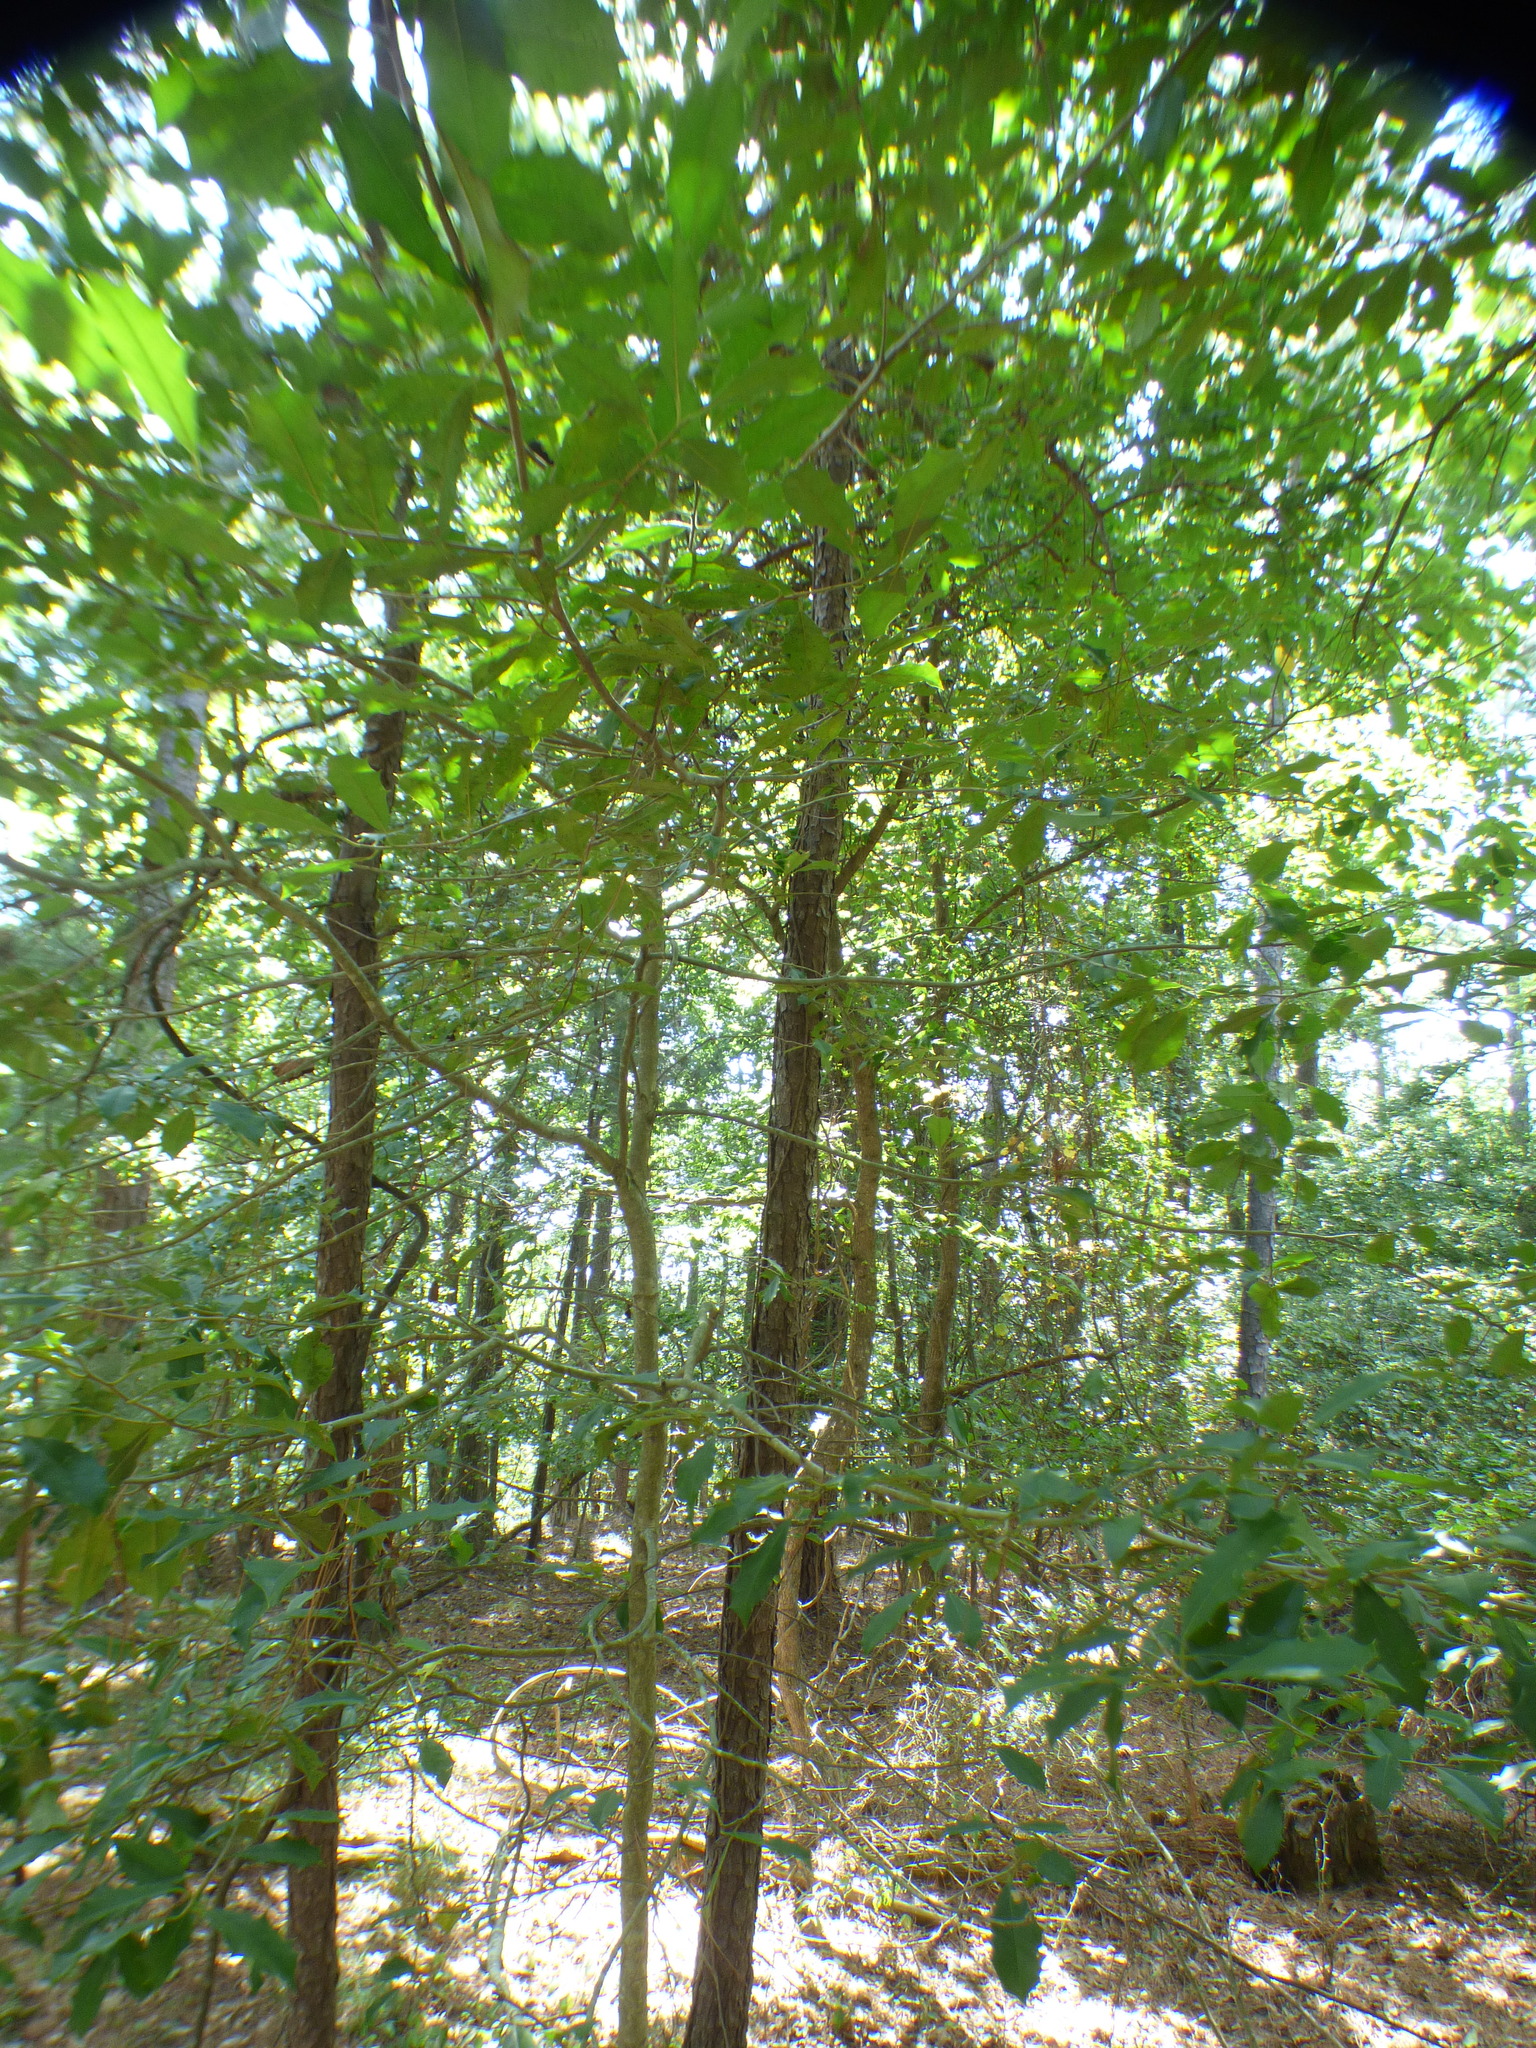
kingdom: Plantae
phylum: Tracheophyta
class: Magnoliopsida
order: Aquifoliales
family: Aquifoliaceae
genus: Ilex
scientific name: Ilex opaca
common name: American holly
